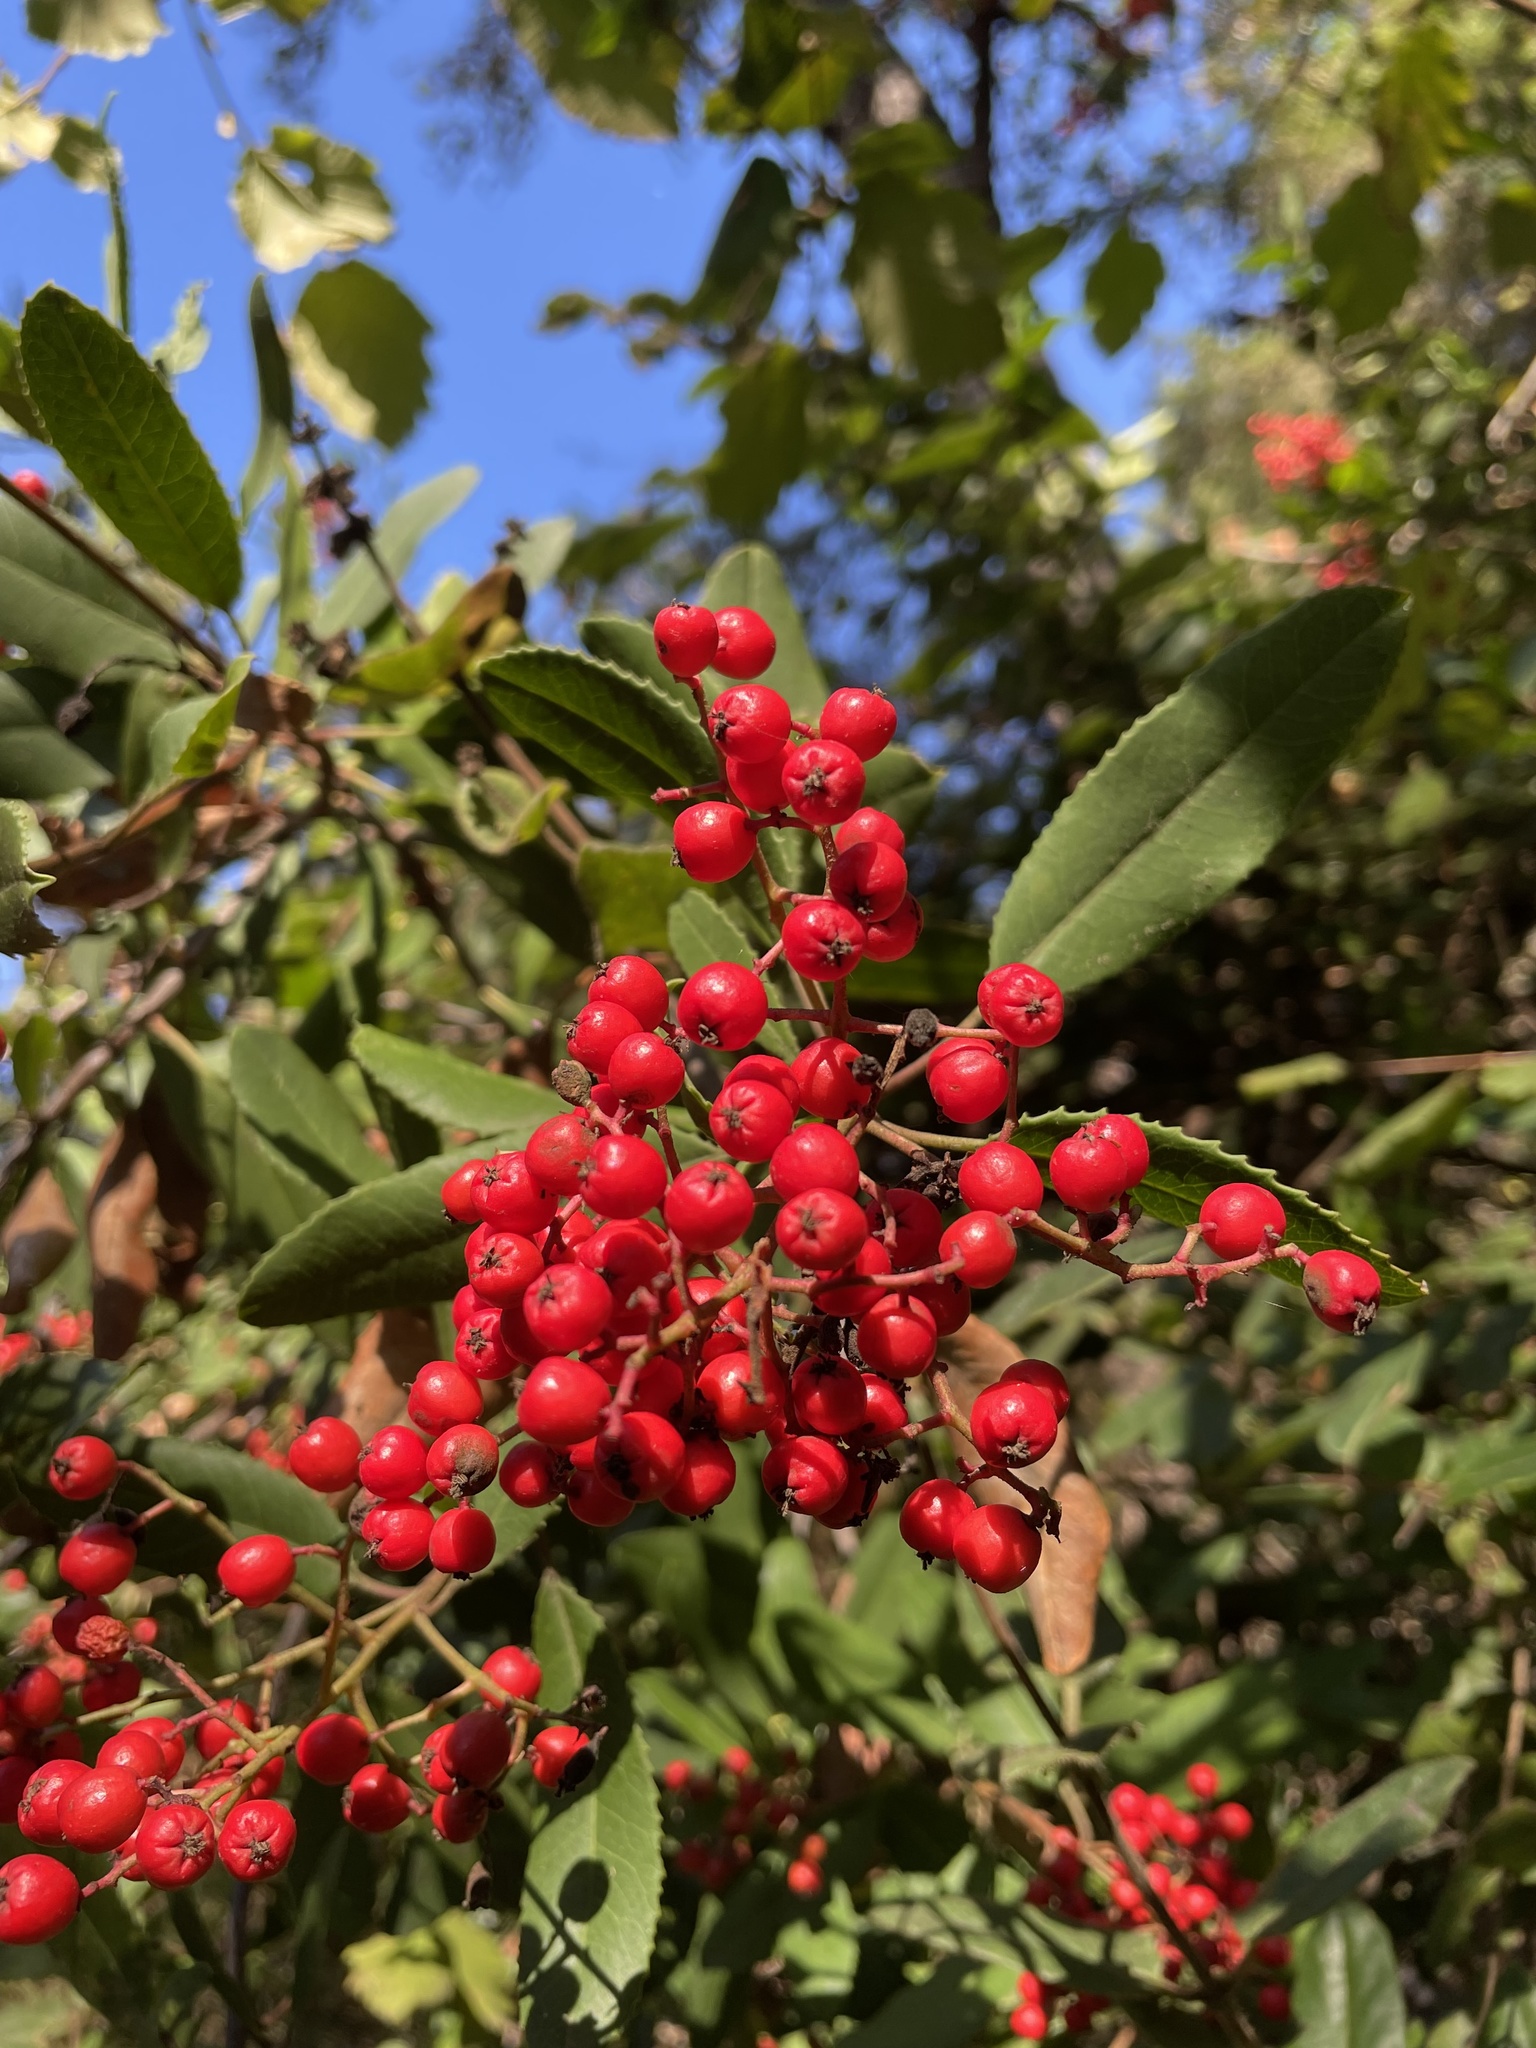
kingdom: Plantae
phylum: Tracheophyta
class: Magnoliopsida
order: Rosales
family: Rosaceae
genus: Heteromeles
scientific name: Heteromeles arbutifolia
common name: California-holly
